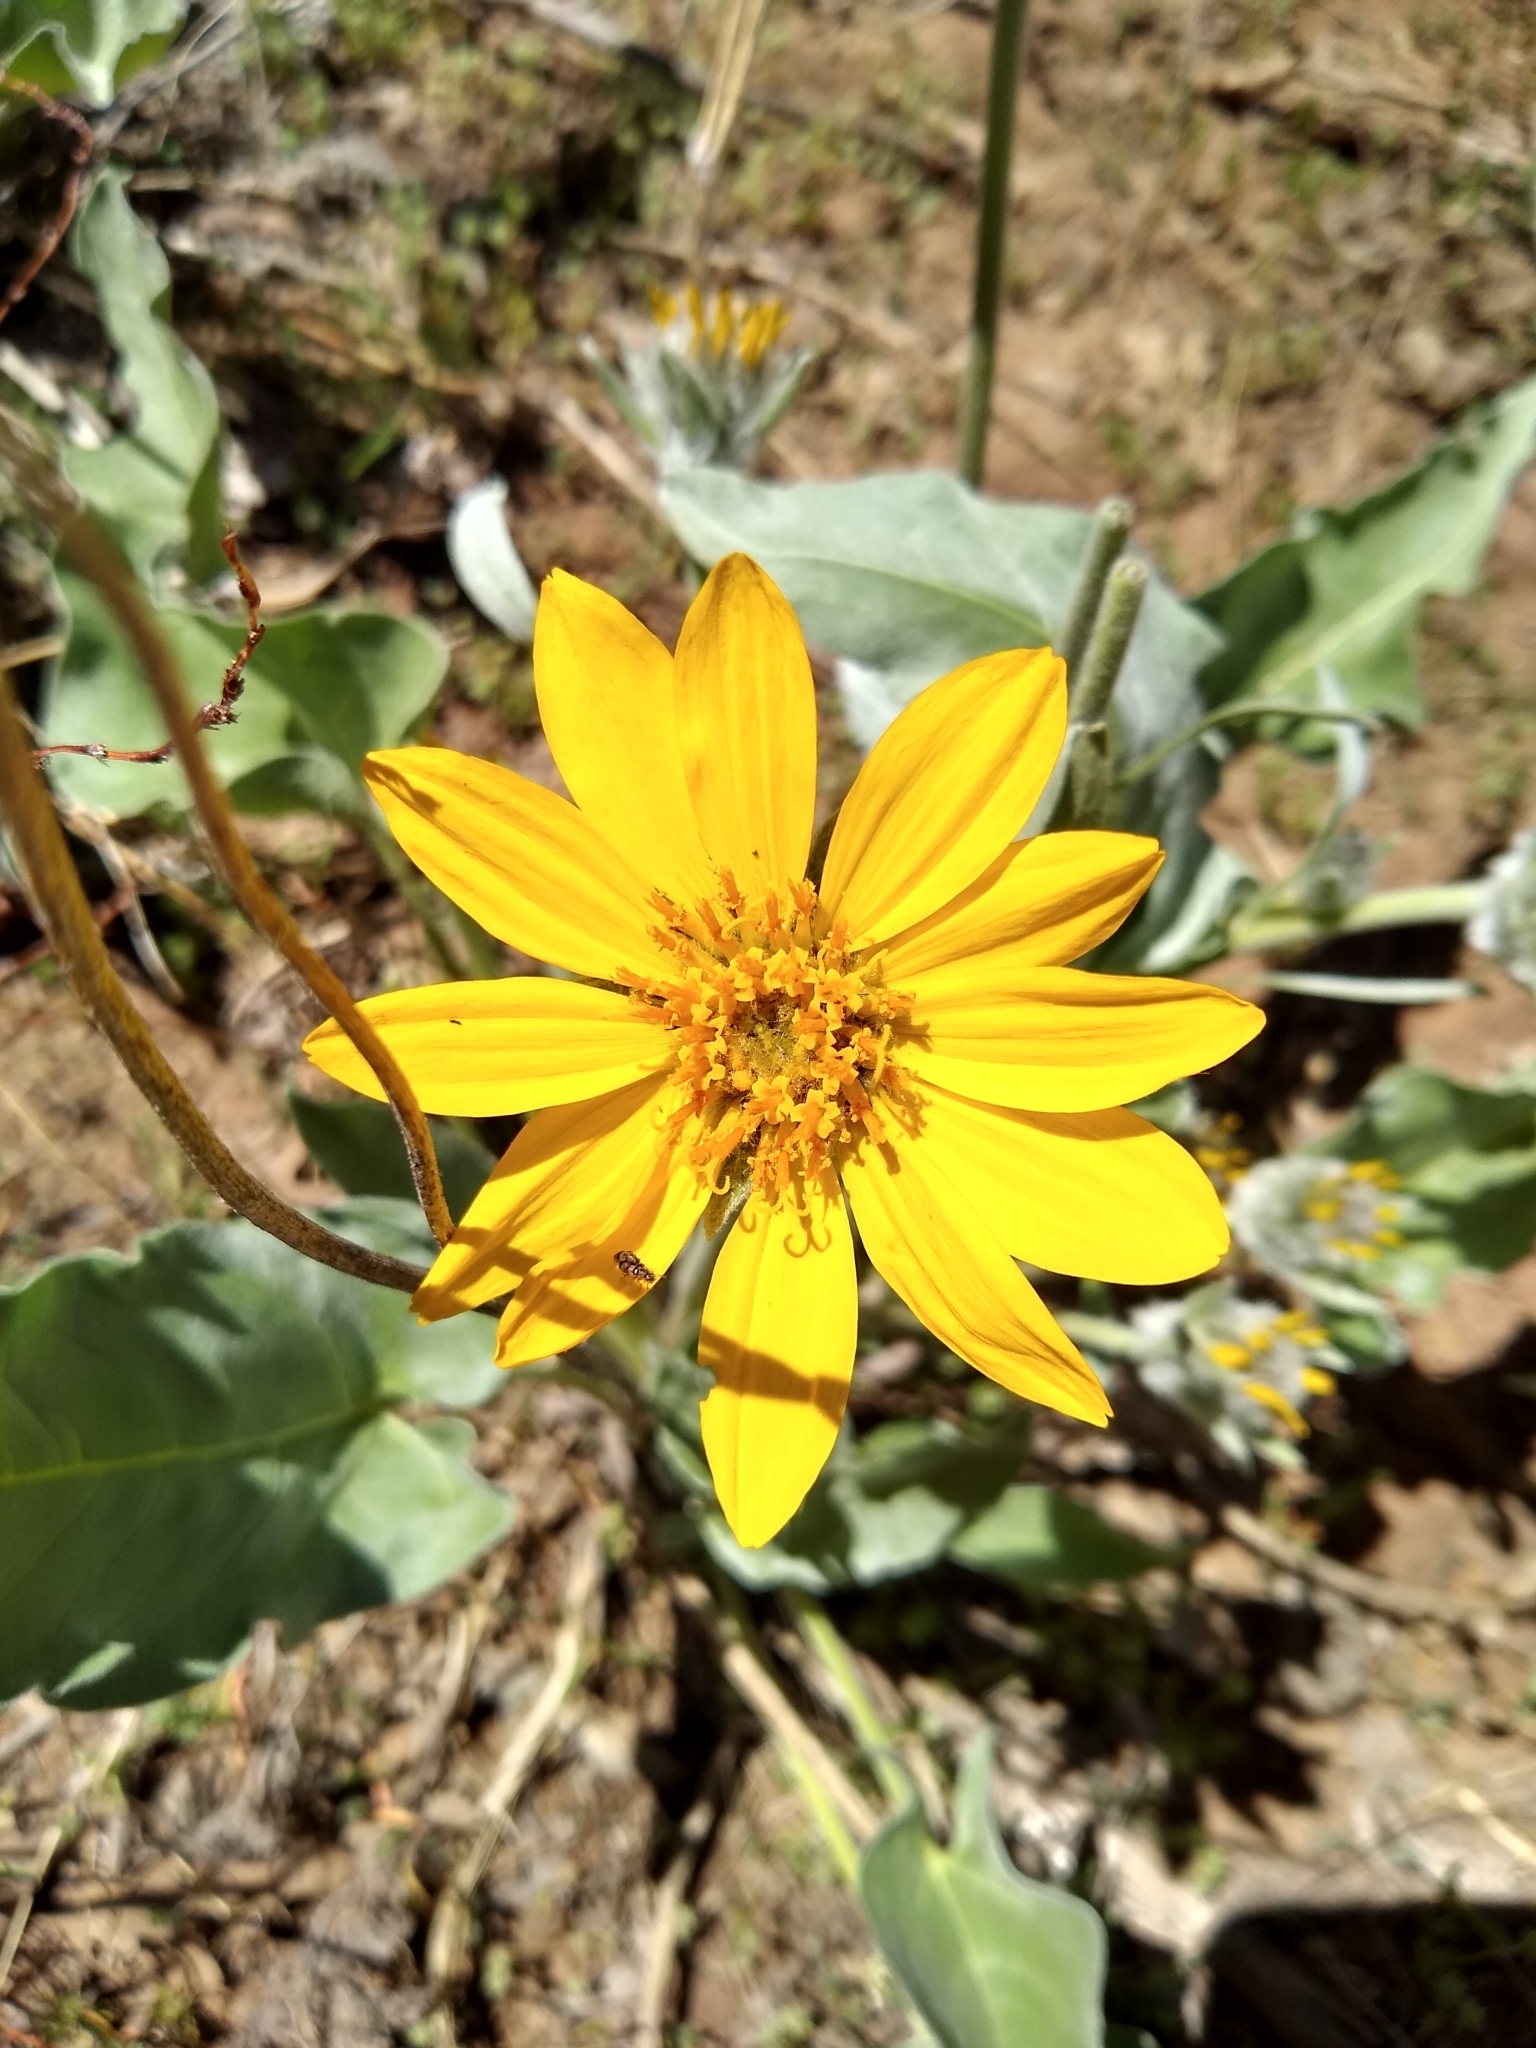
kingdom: Plantae
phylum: Tracheophyta
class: Magnoliopsida
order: Asterales
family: Asteraceae
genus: Wyethia
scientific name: Wyethia sagittata
